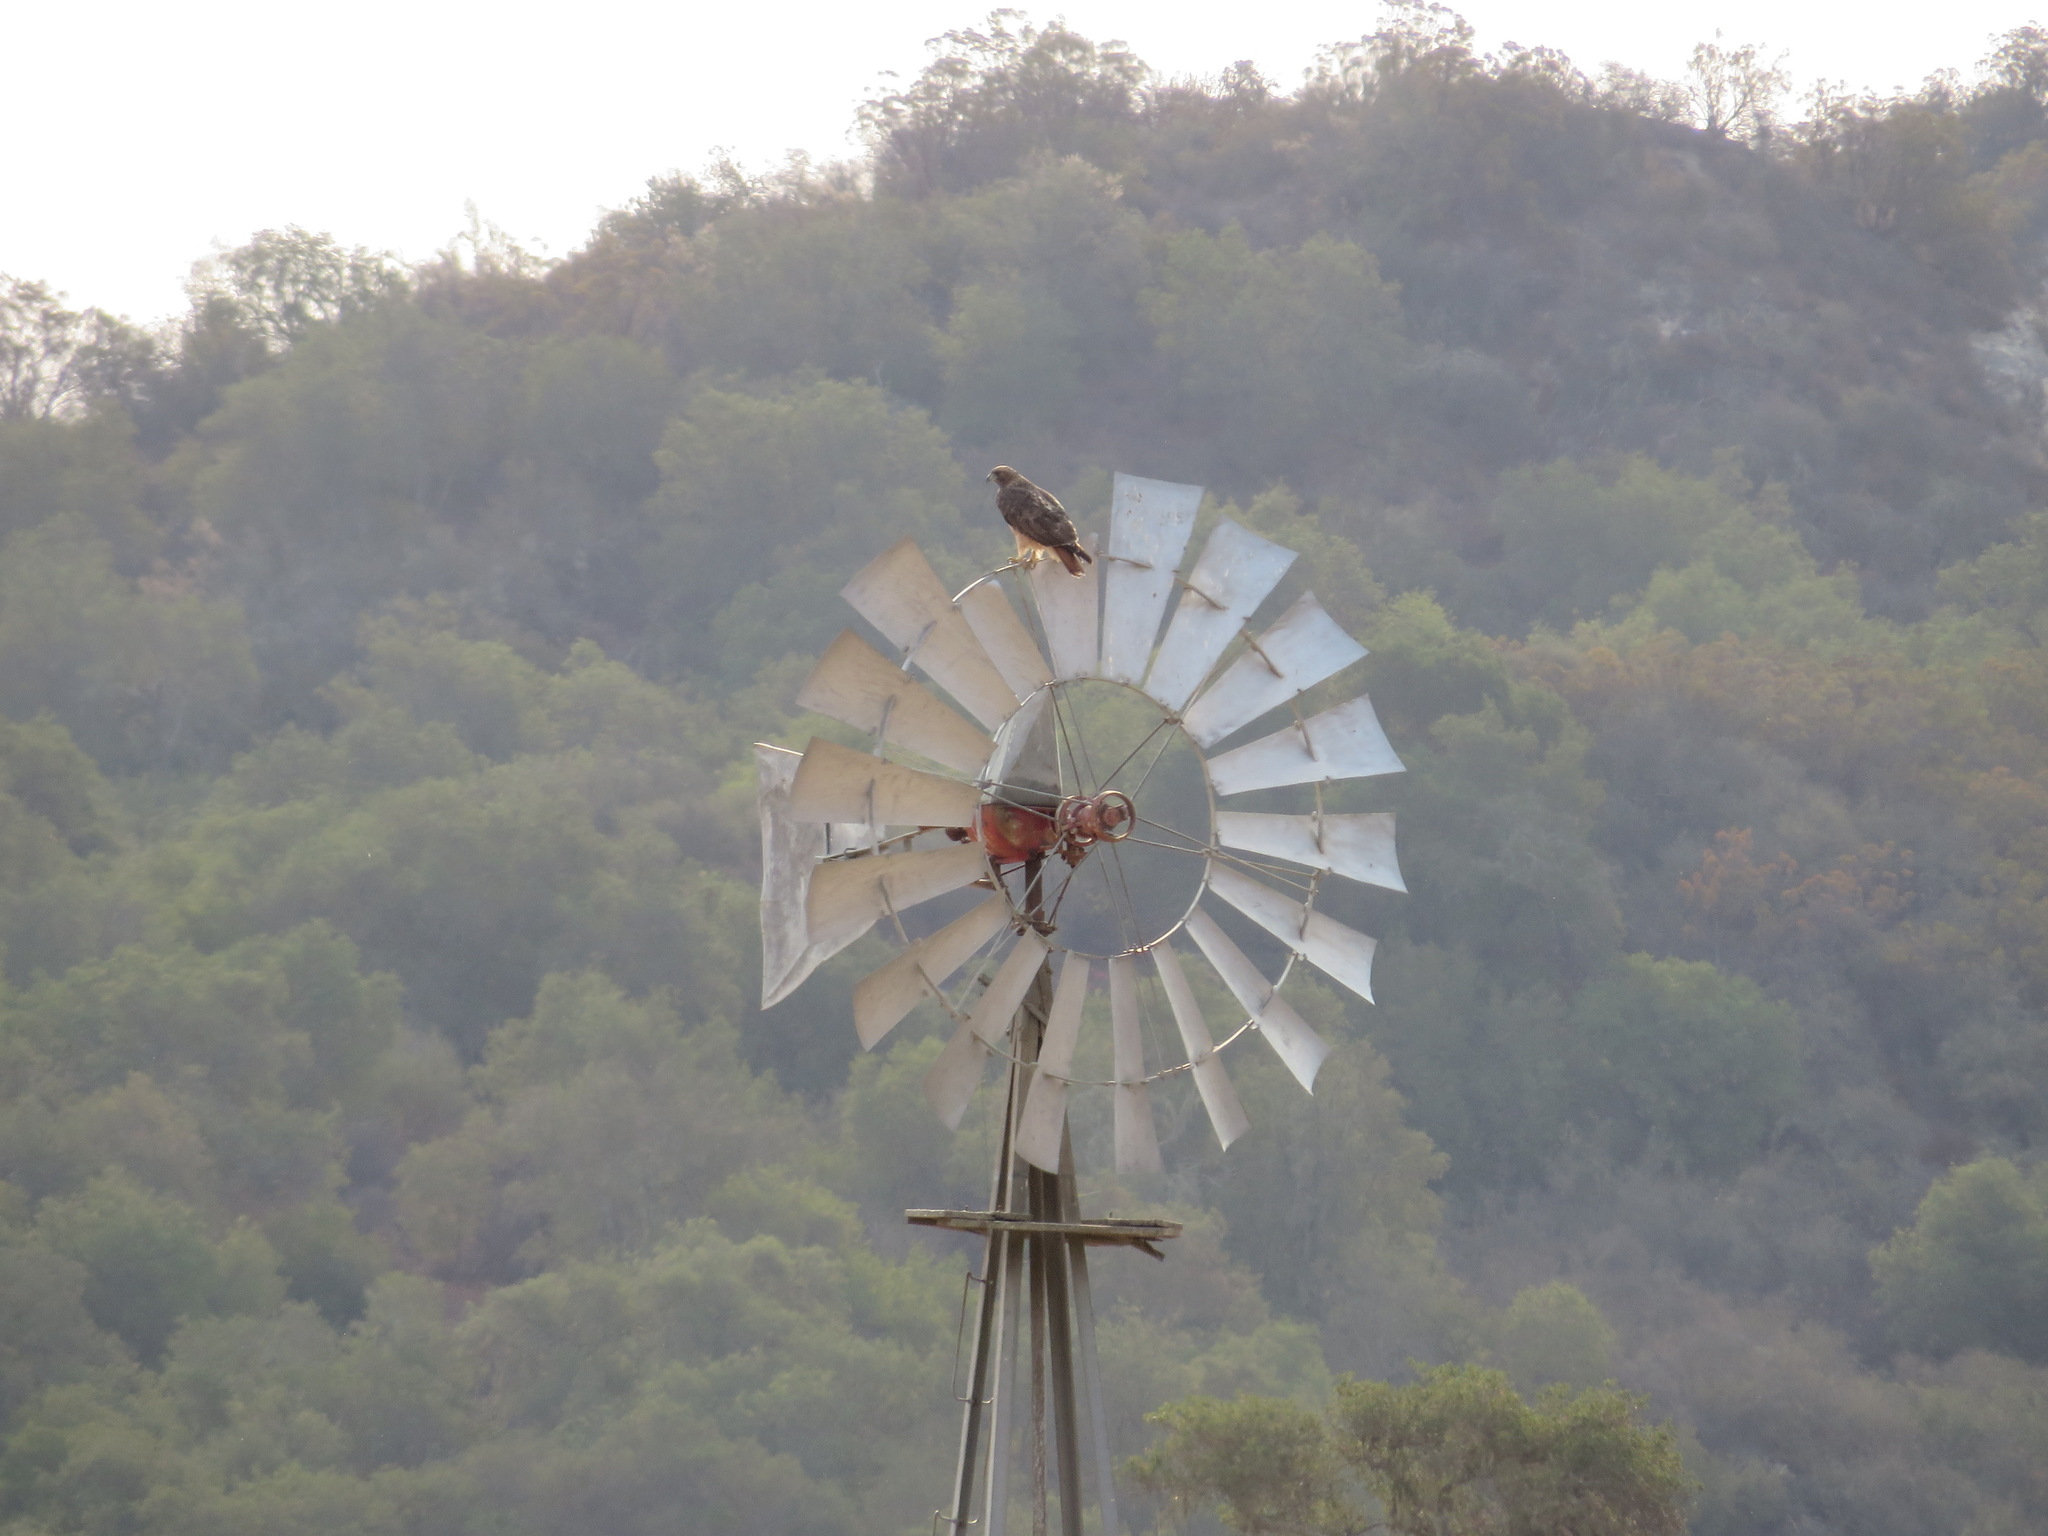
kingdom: Animalia
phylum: Chordata
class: Aves
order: Accipitriformes
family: Accipitridae
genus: Buteo
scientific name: Buteo jamaicensis
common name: Red-tailed hawk
